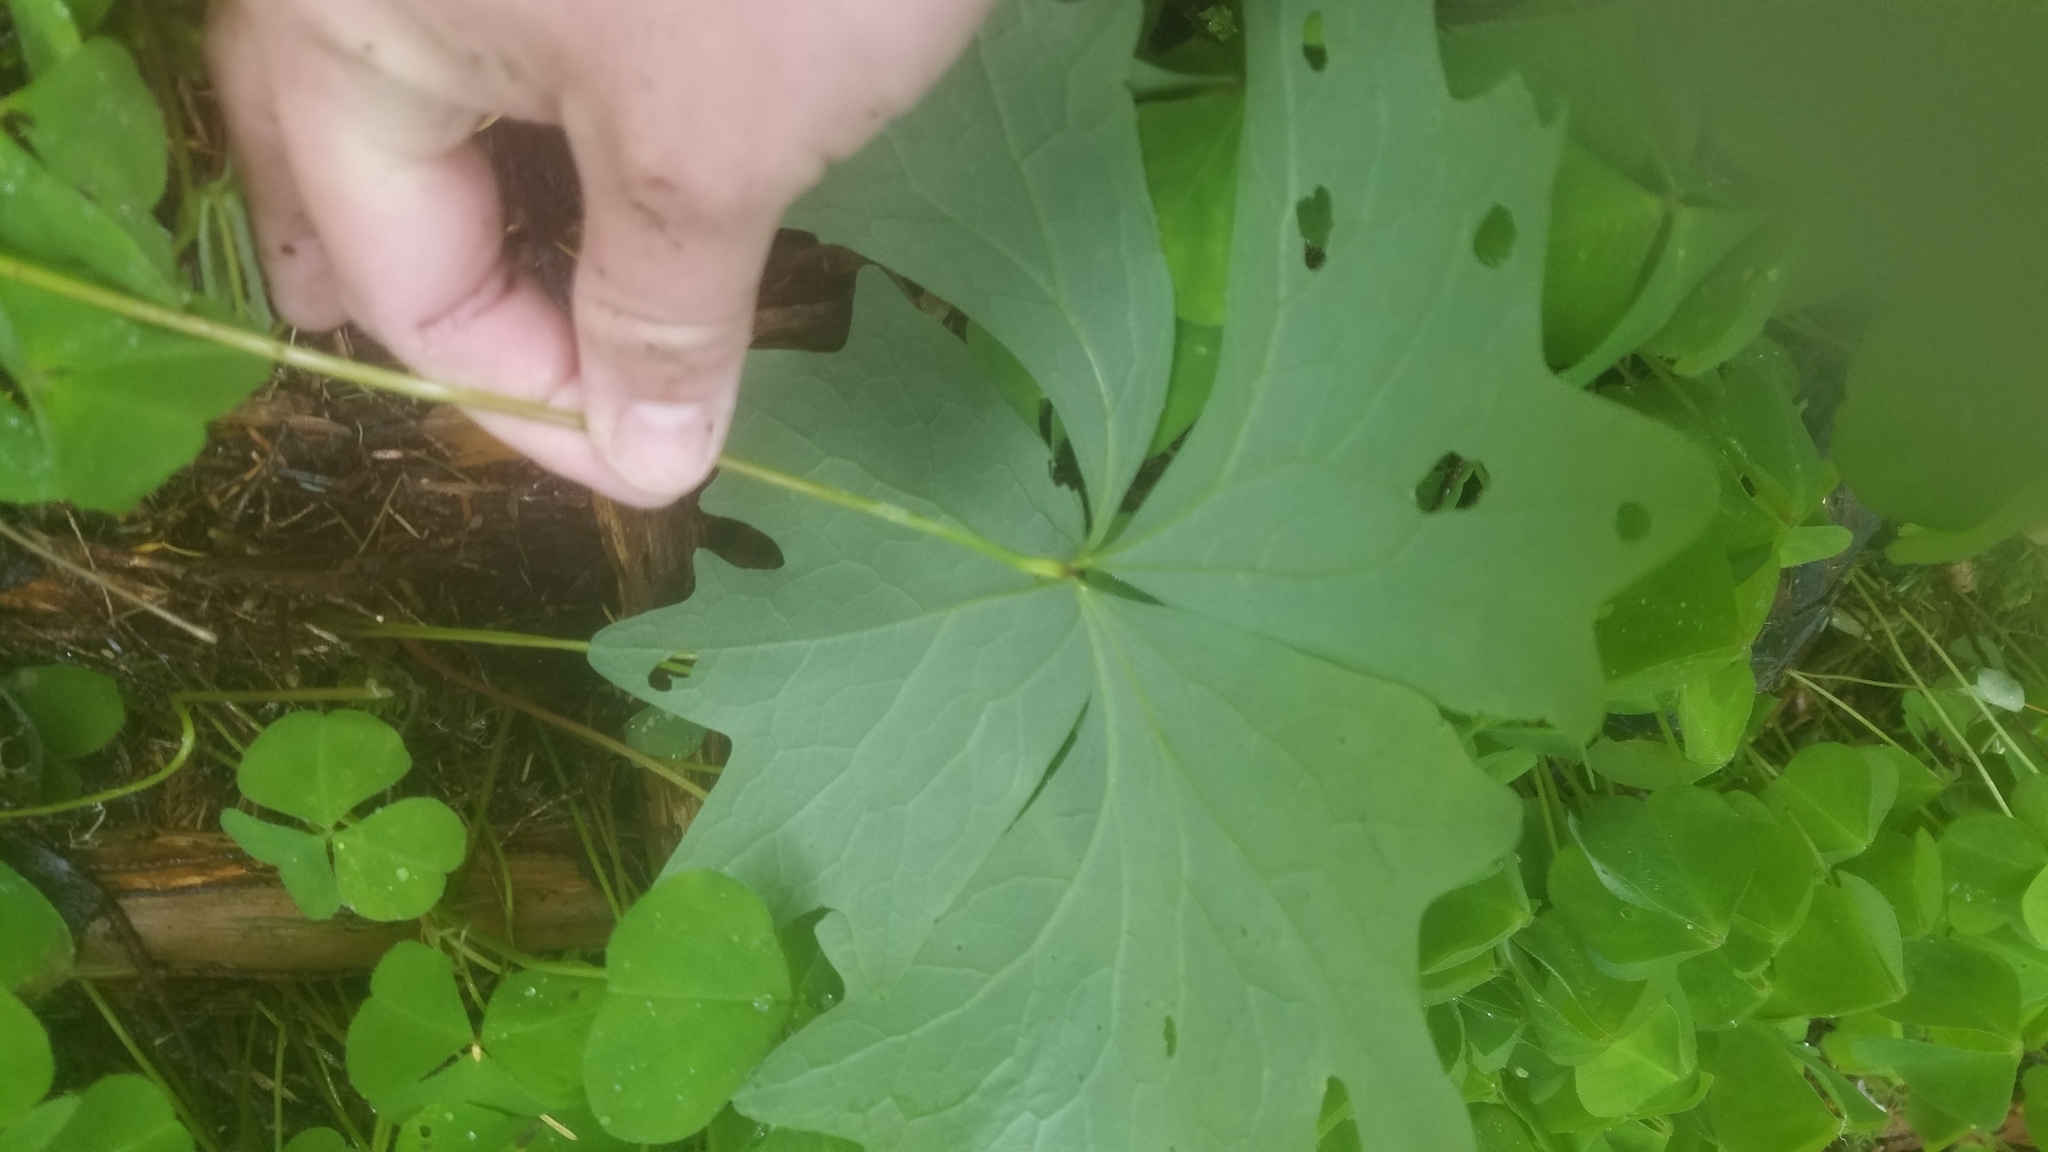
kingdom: Plantae
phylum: Tracheophyta
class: Magnoliopsida
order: Ranunculales
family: Berberidaceae
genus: Achlys
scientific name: Achlys triphylla
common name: Vanilla-leaf
